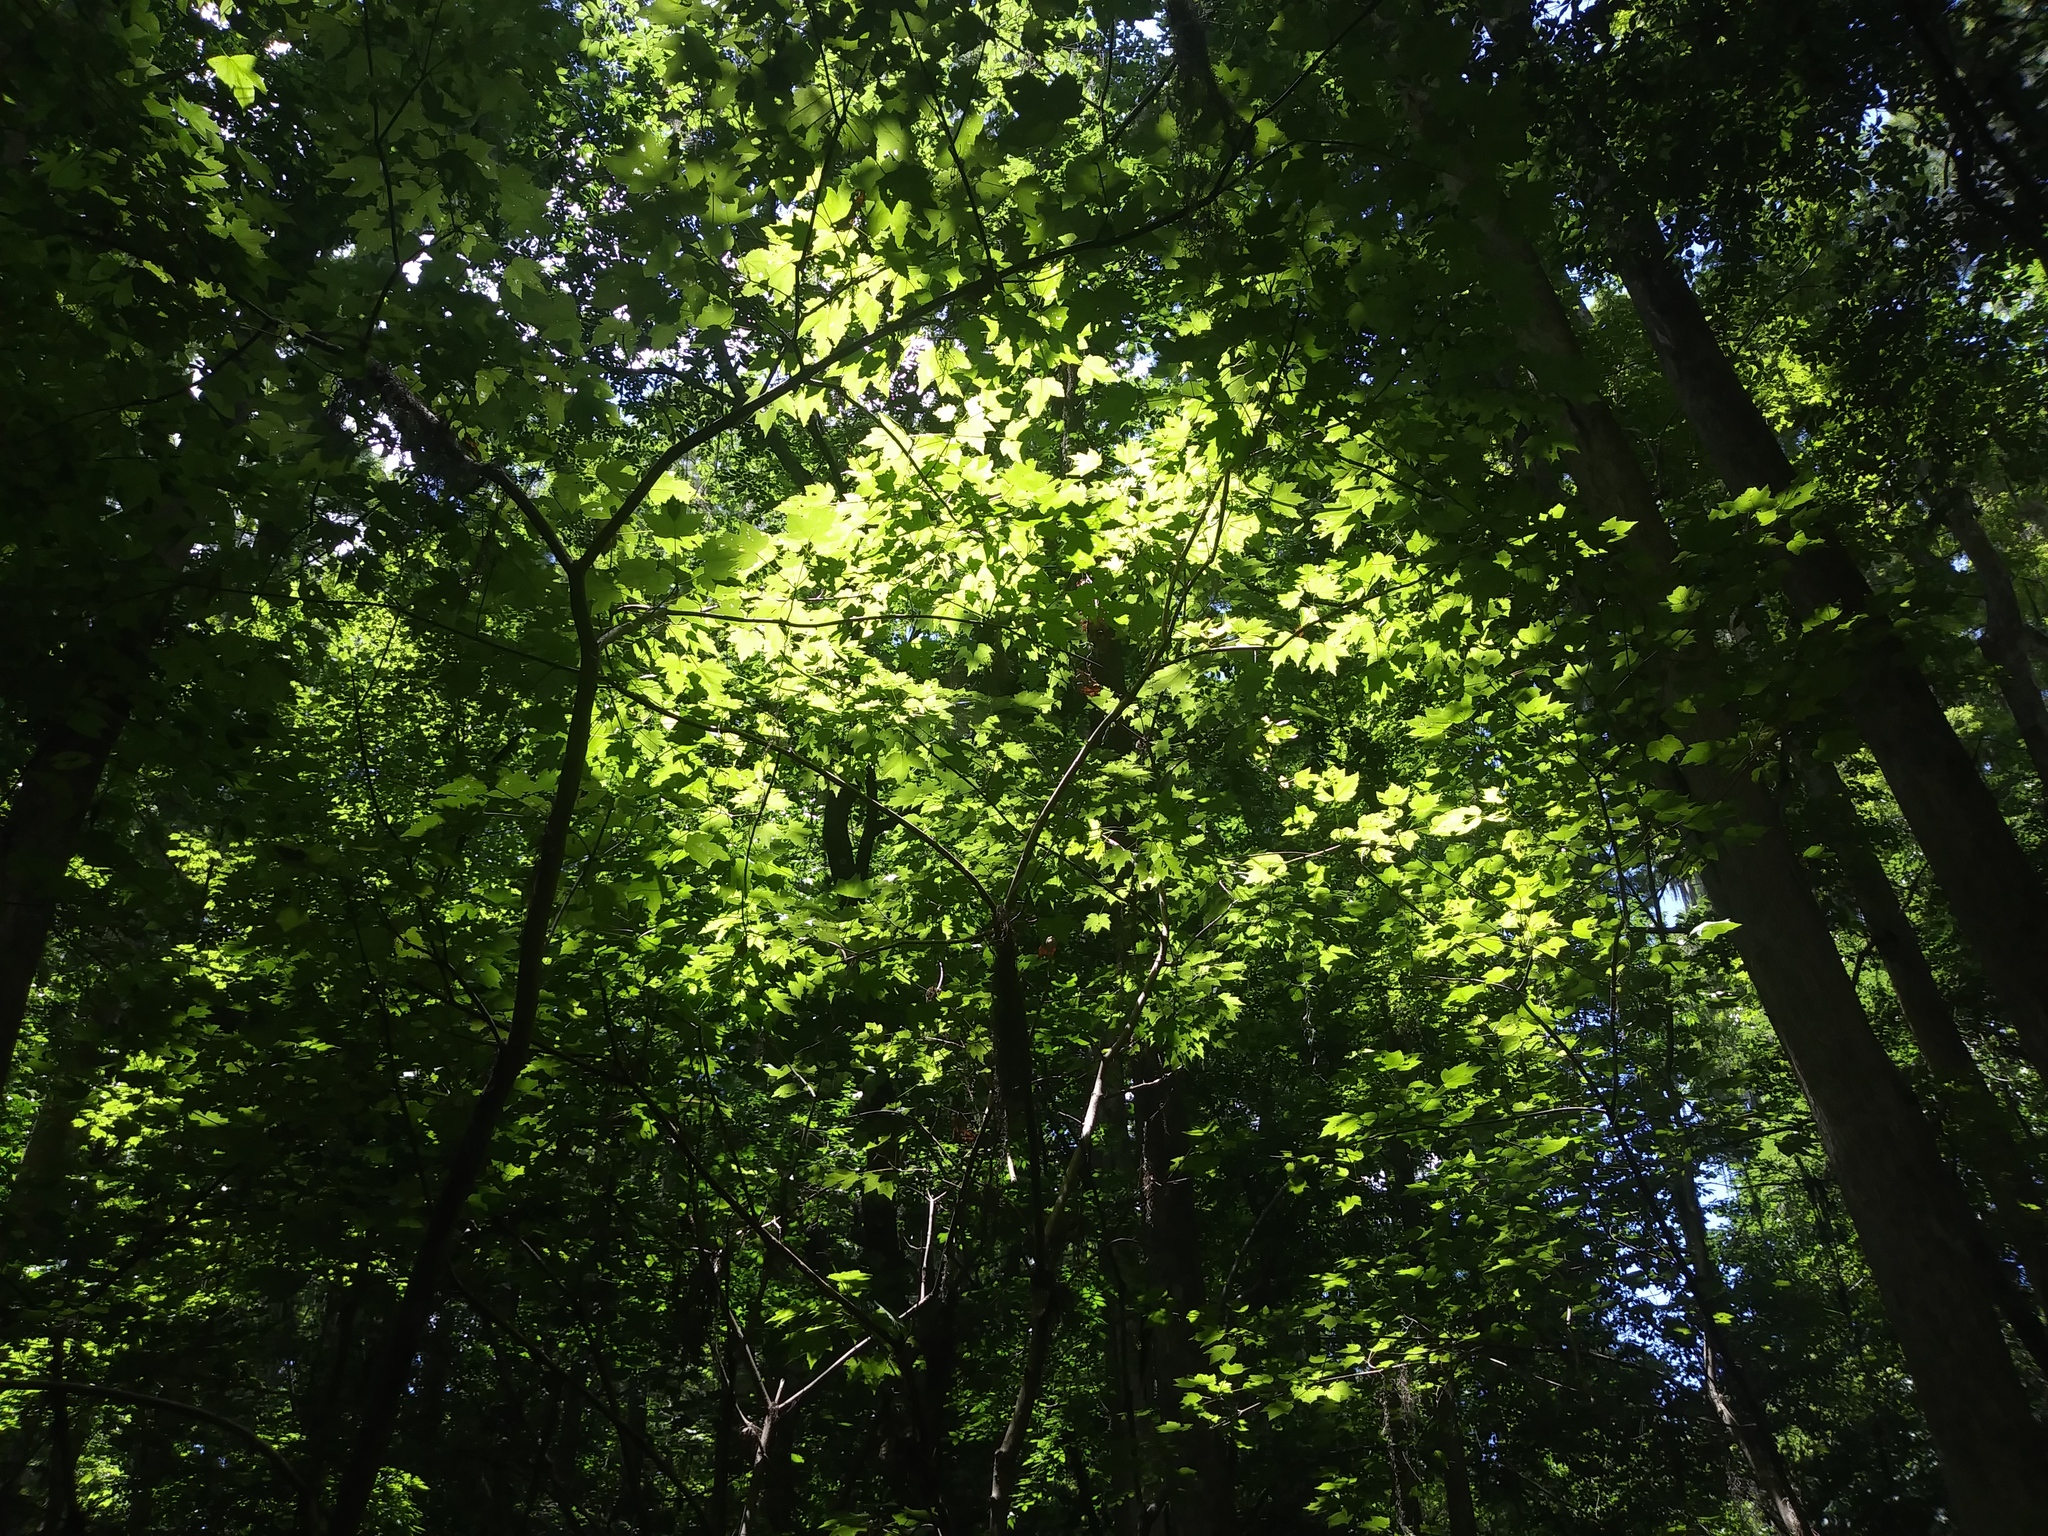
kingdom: Plantae
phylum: Tracheophyta
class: Magnoliopsida
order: Sapindales
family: Sapindaceae
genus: Acer
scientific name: Acer rubrum
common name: Red maple
